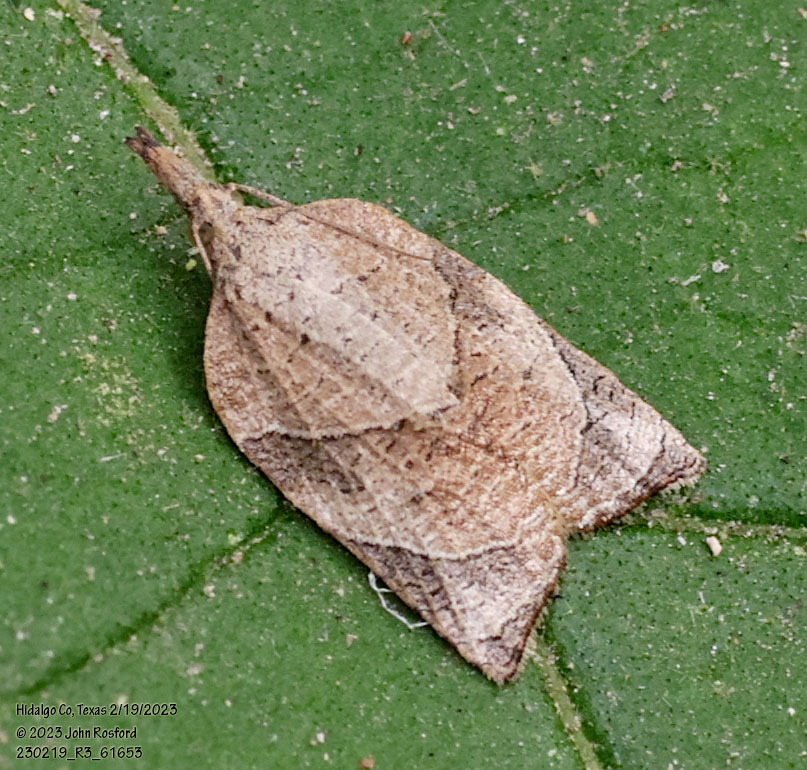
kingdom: Animalia
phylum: Arthropoda
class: Insecta
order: Lepidoptera
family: Tortricidae
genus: Platynota
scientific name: Platynota rostrana
